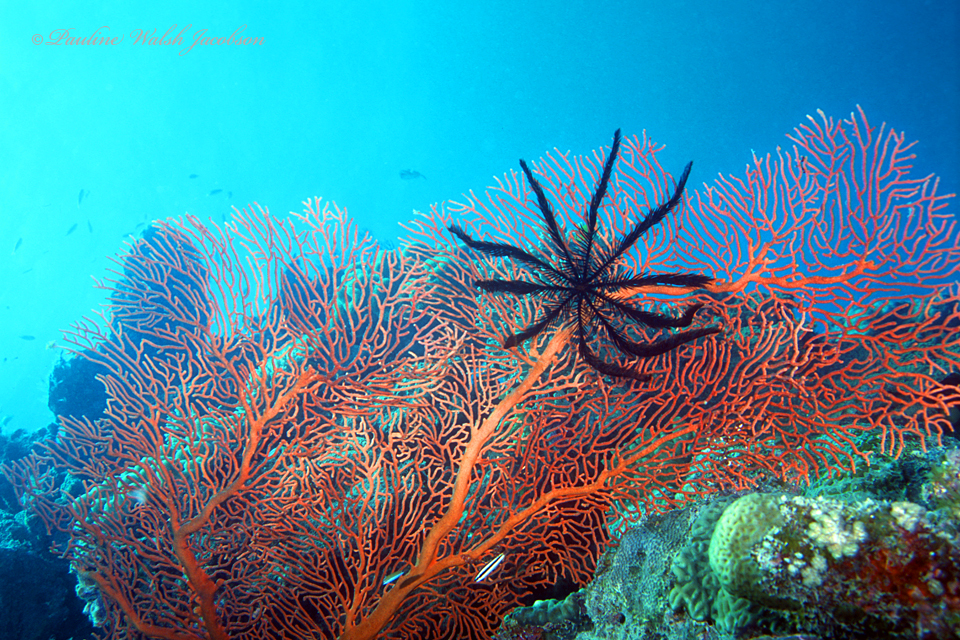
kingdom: Animalia
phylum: Echinodermata
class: Crinoidea
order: Comatulida
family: Colobometridae
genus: Colobometra
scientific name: Colobometra perspinosa
